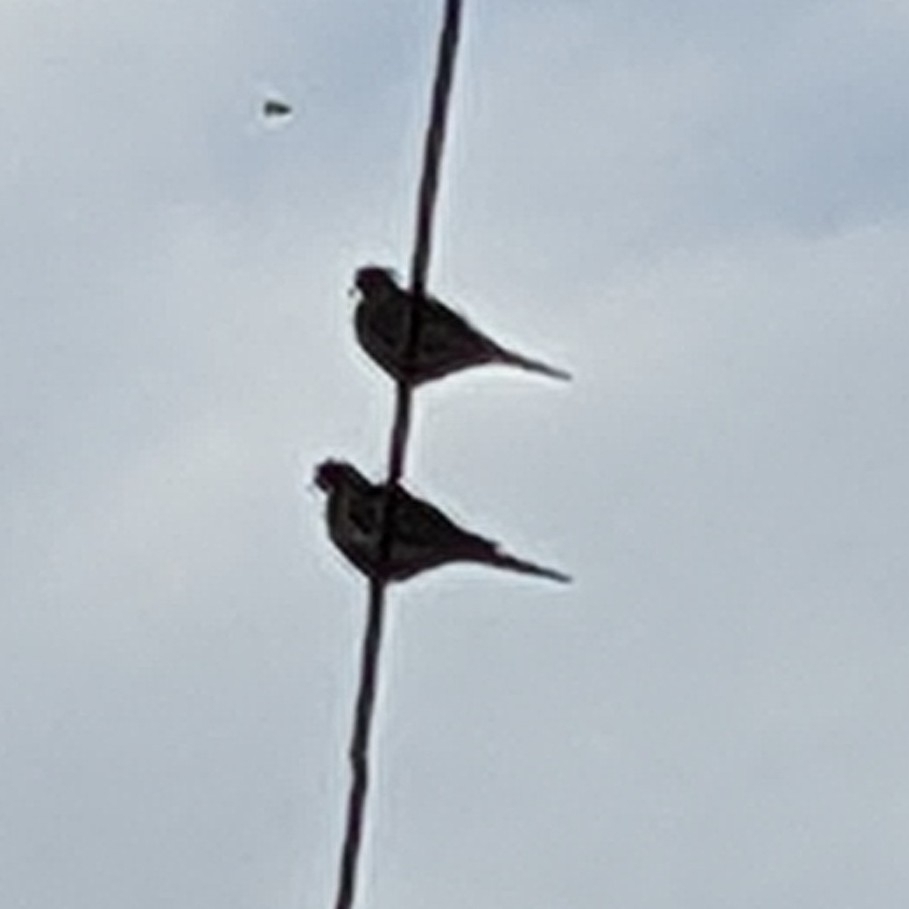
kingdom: Animalia
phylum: Chordata
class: Aves
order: Columbiformes
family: Columbidae
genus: Zenaida
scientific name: Zenaida macroura
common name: Mourning dove
